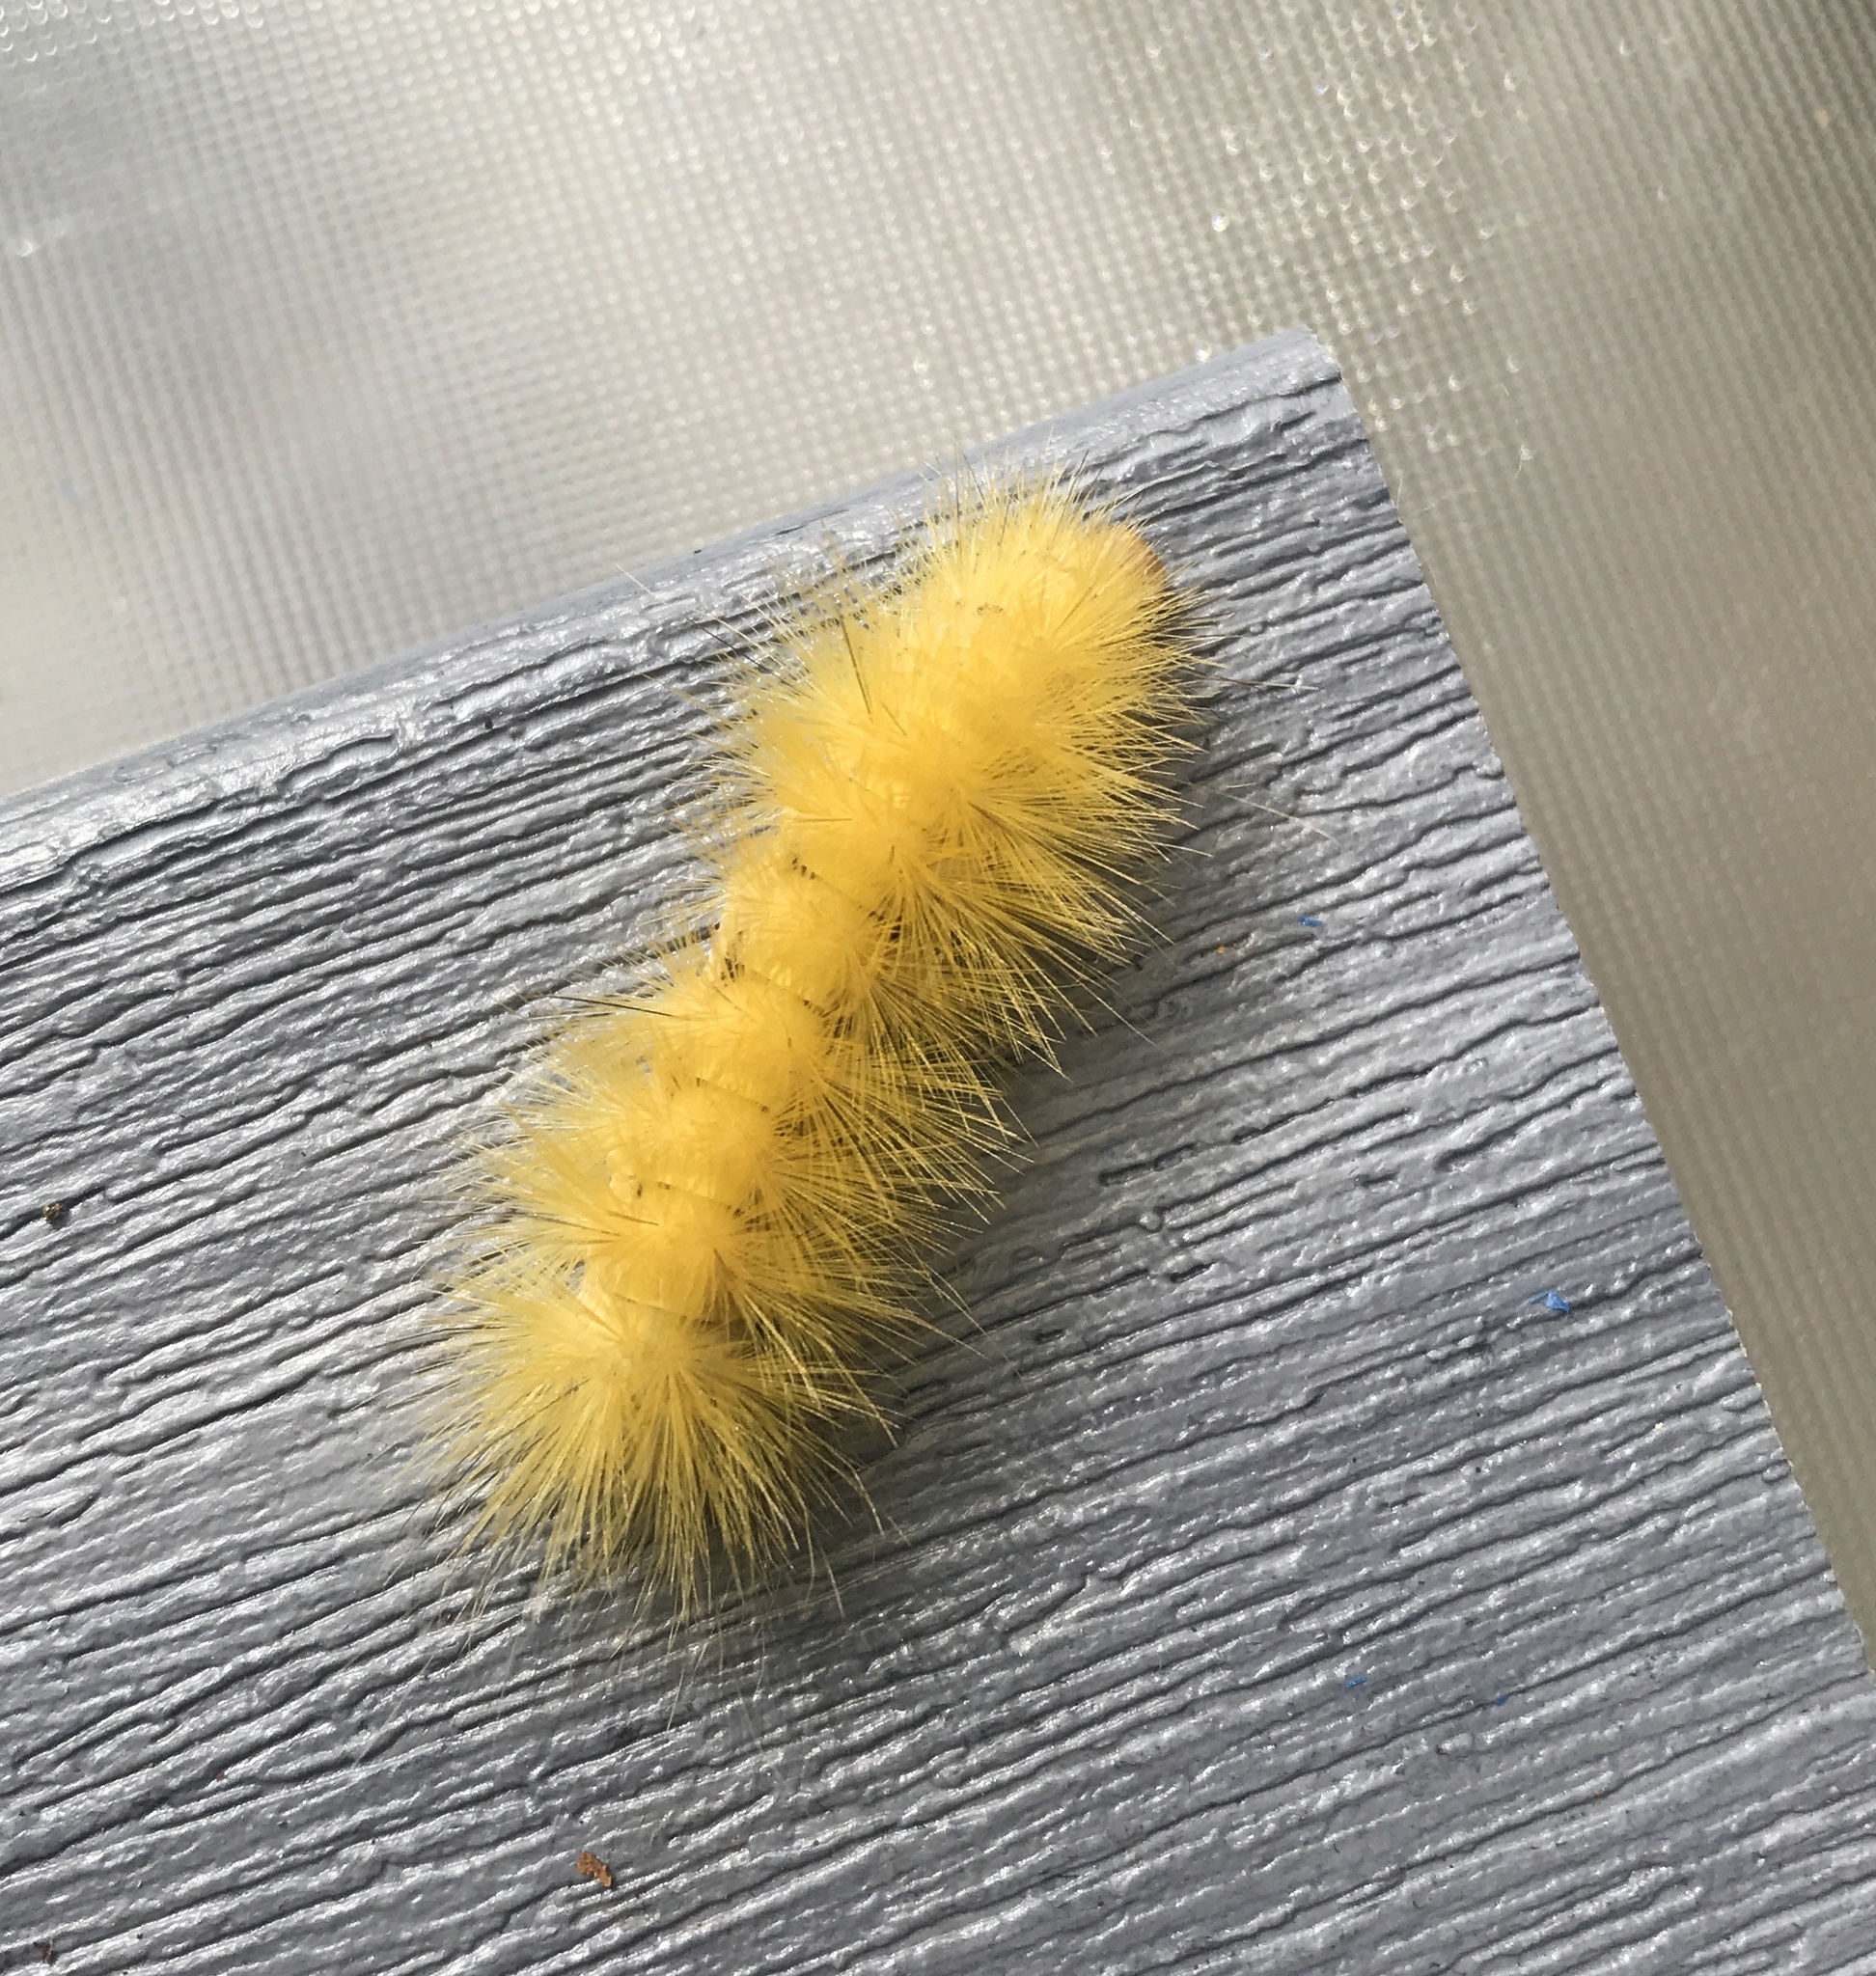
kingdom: Animalia
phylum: Arthropoda
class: Insecta
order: Lepidoptera
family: Erebidae
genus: Spilosoma
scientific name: Spilosoma virginica
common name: Virginia tiger moth
